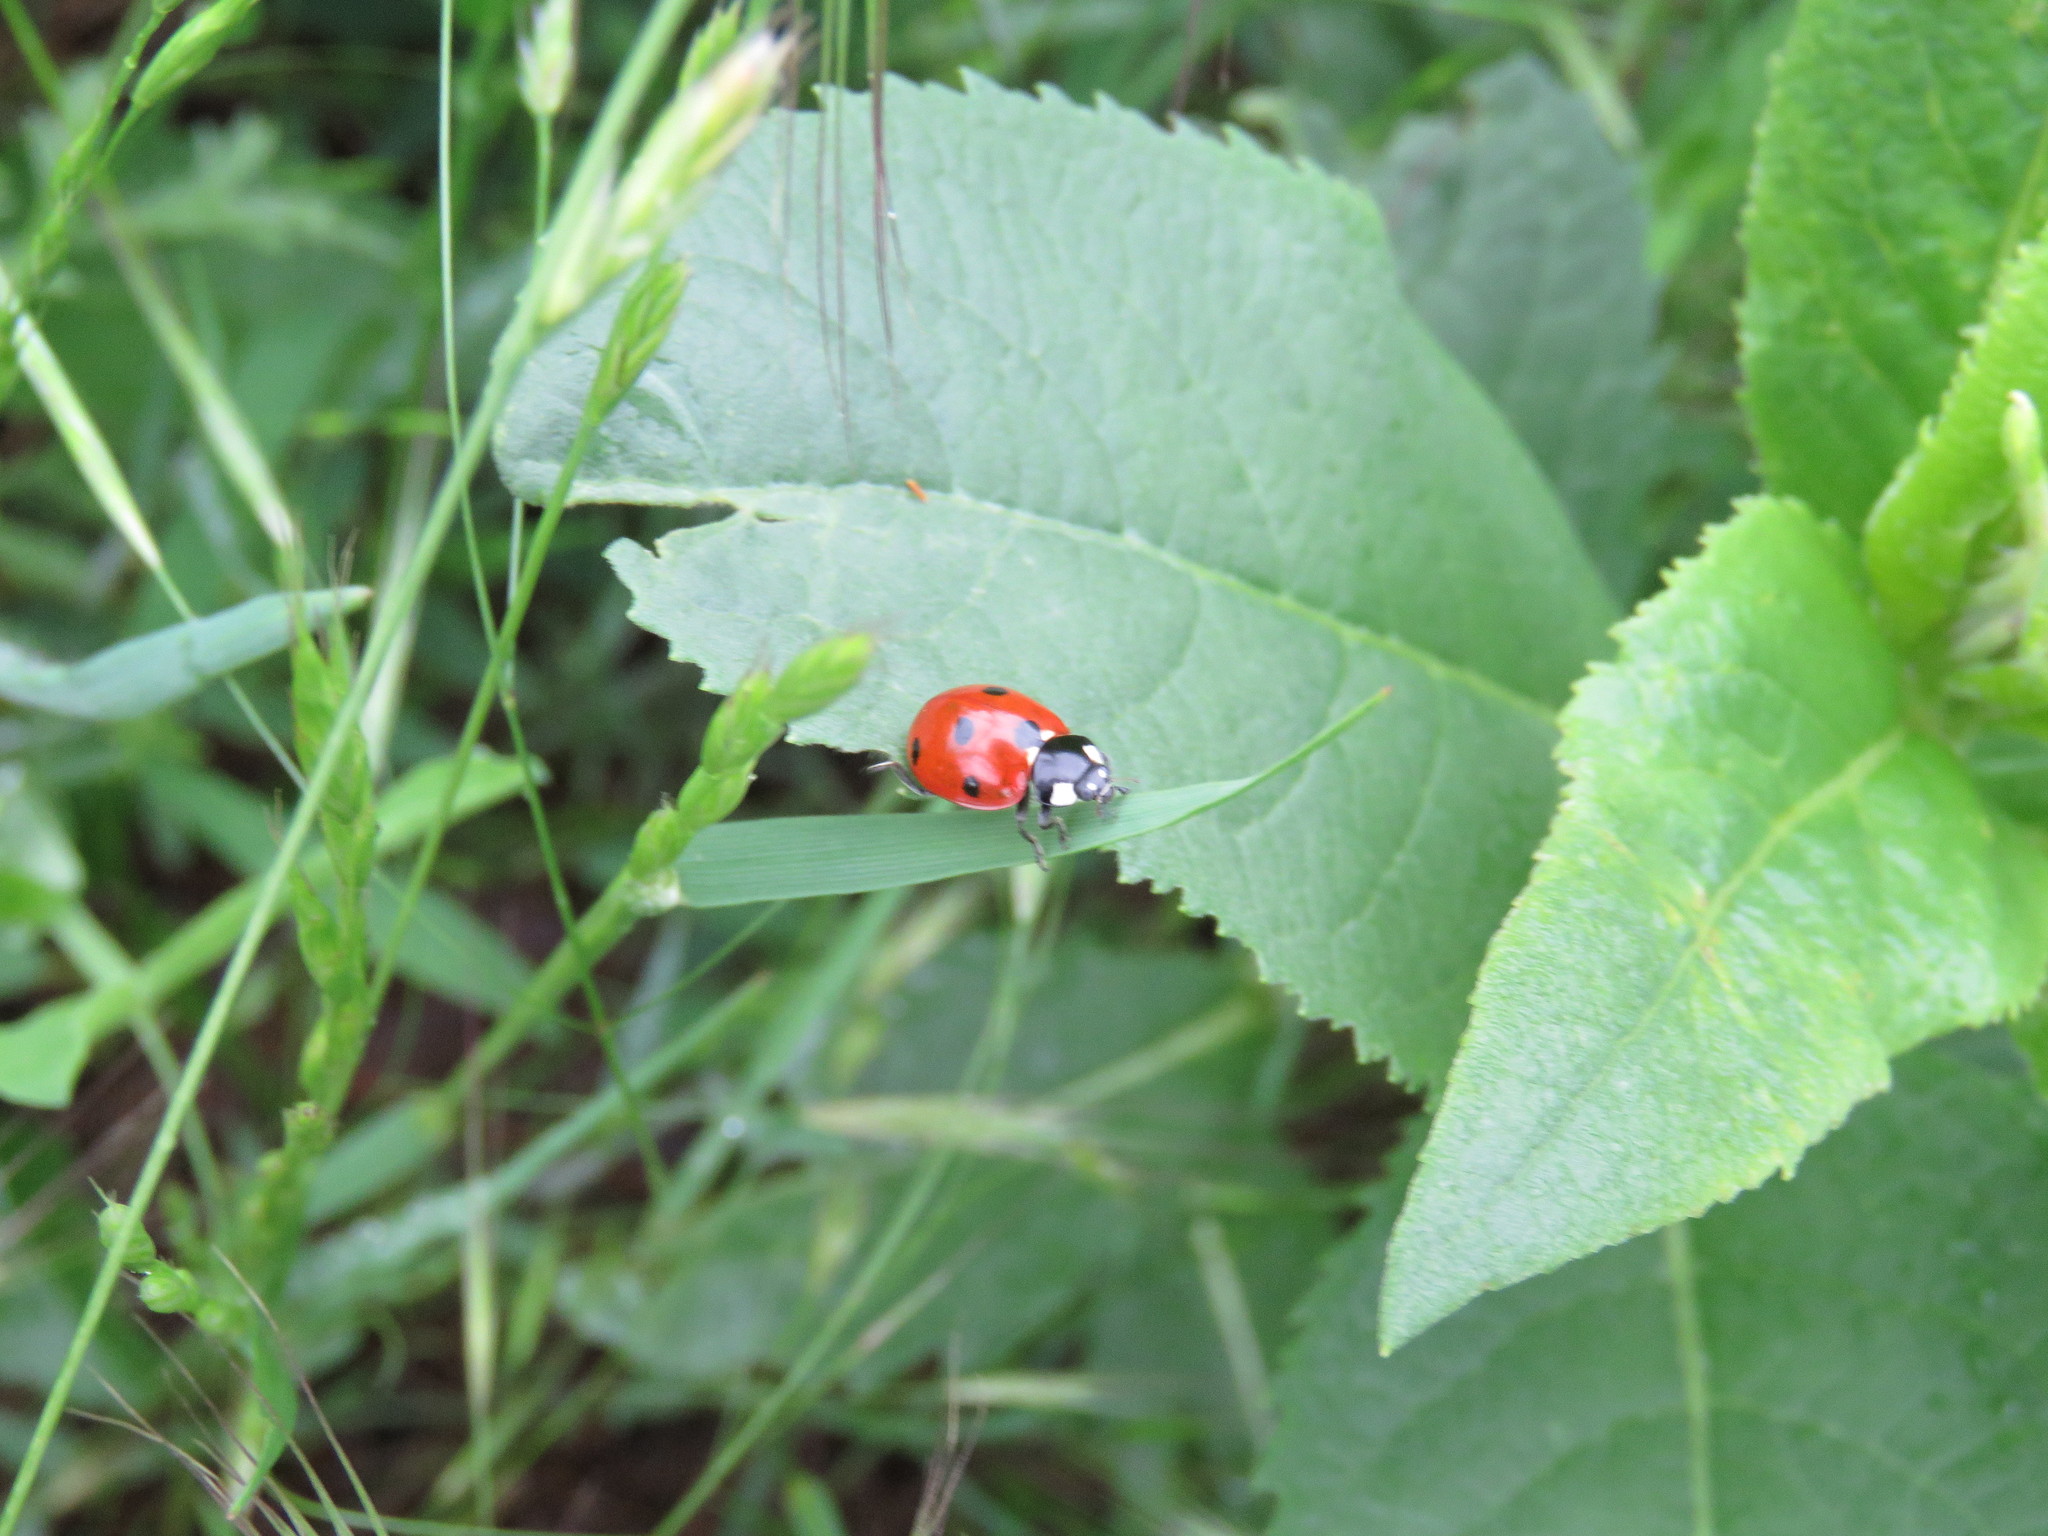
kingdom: Animalia
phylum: Arthropoda
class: Insecta
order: Coleoptera
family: Coccinellidae
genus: Coccinella
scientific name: Coccinella septempunctata
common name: Sevenspotted lady beetle
